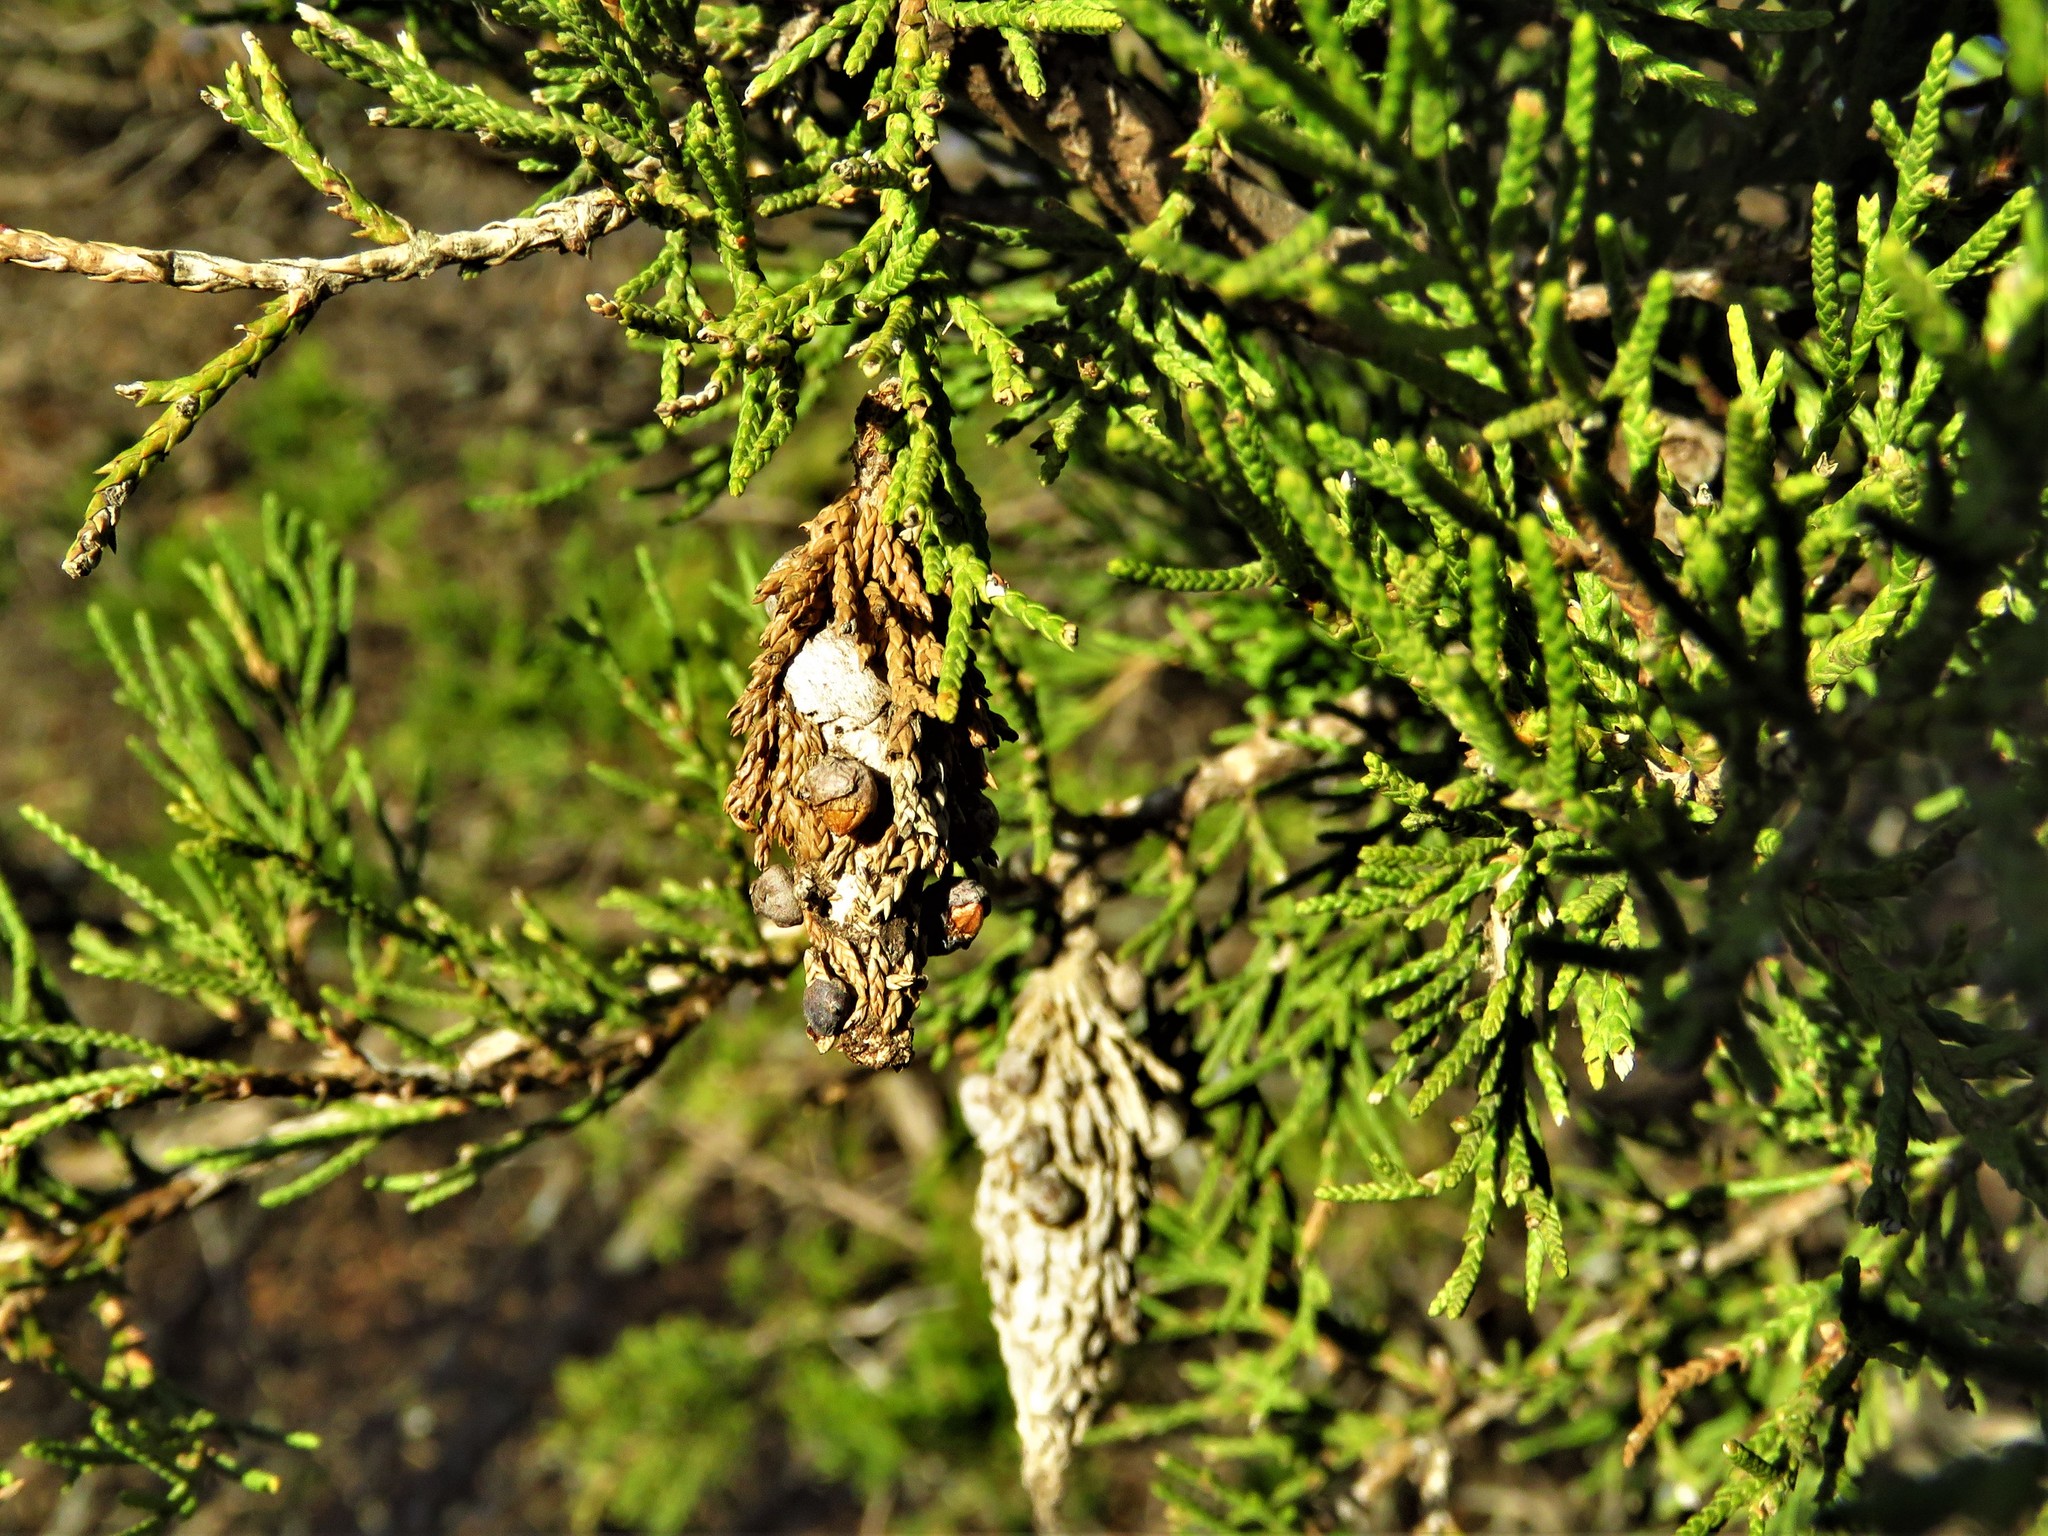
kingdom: Animalia
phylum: Arthropoda
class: Insecta
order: Lepidoptera
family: Psychidae
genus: Thyridopteryx
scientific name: Thyridopteryx ephemeraeformis
